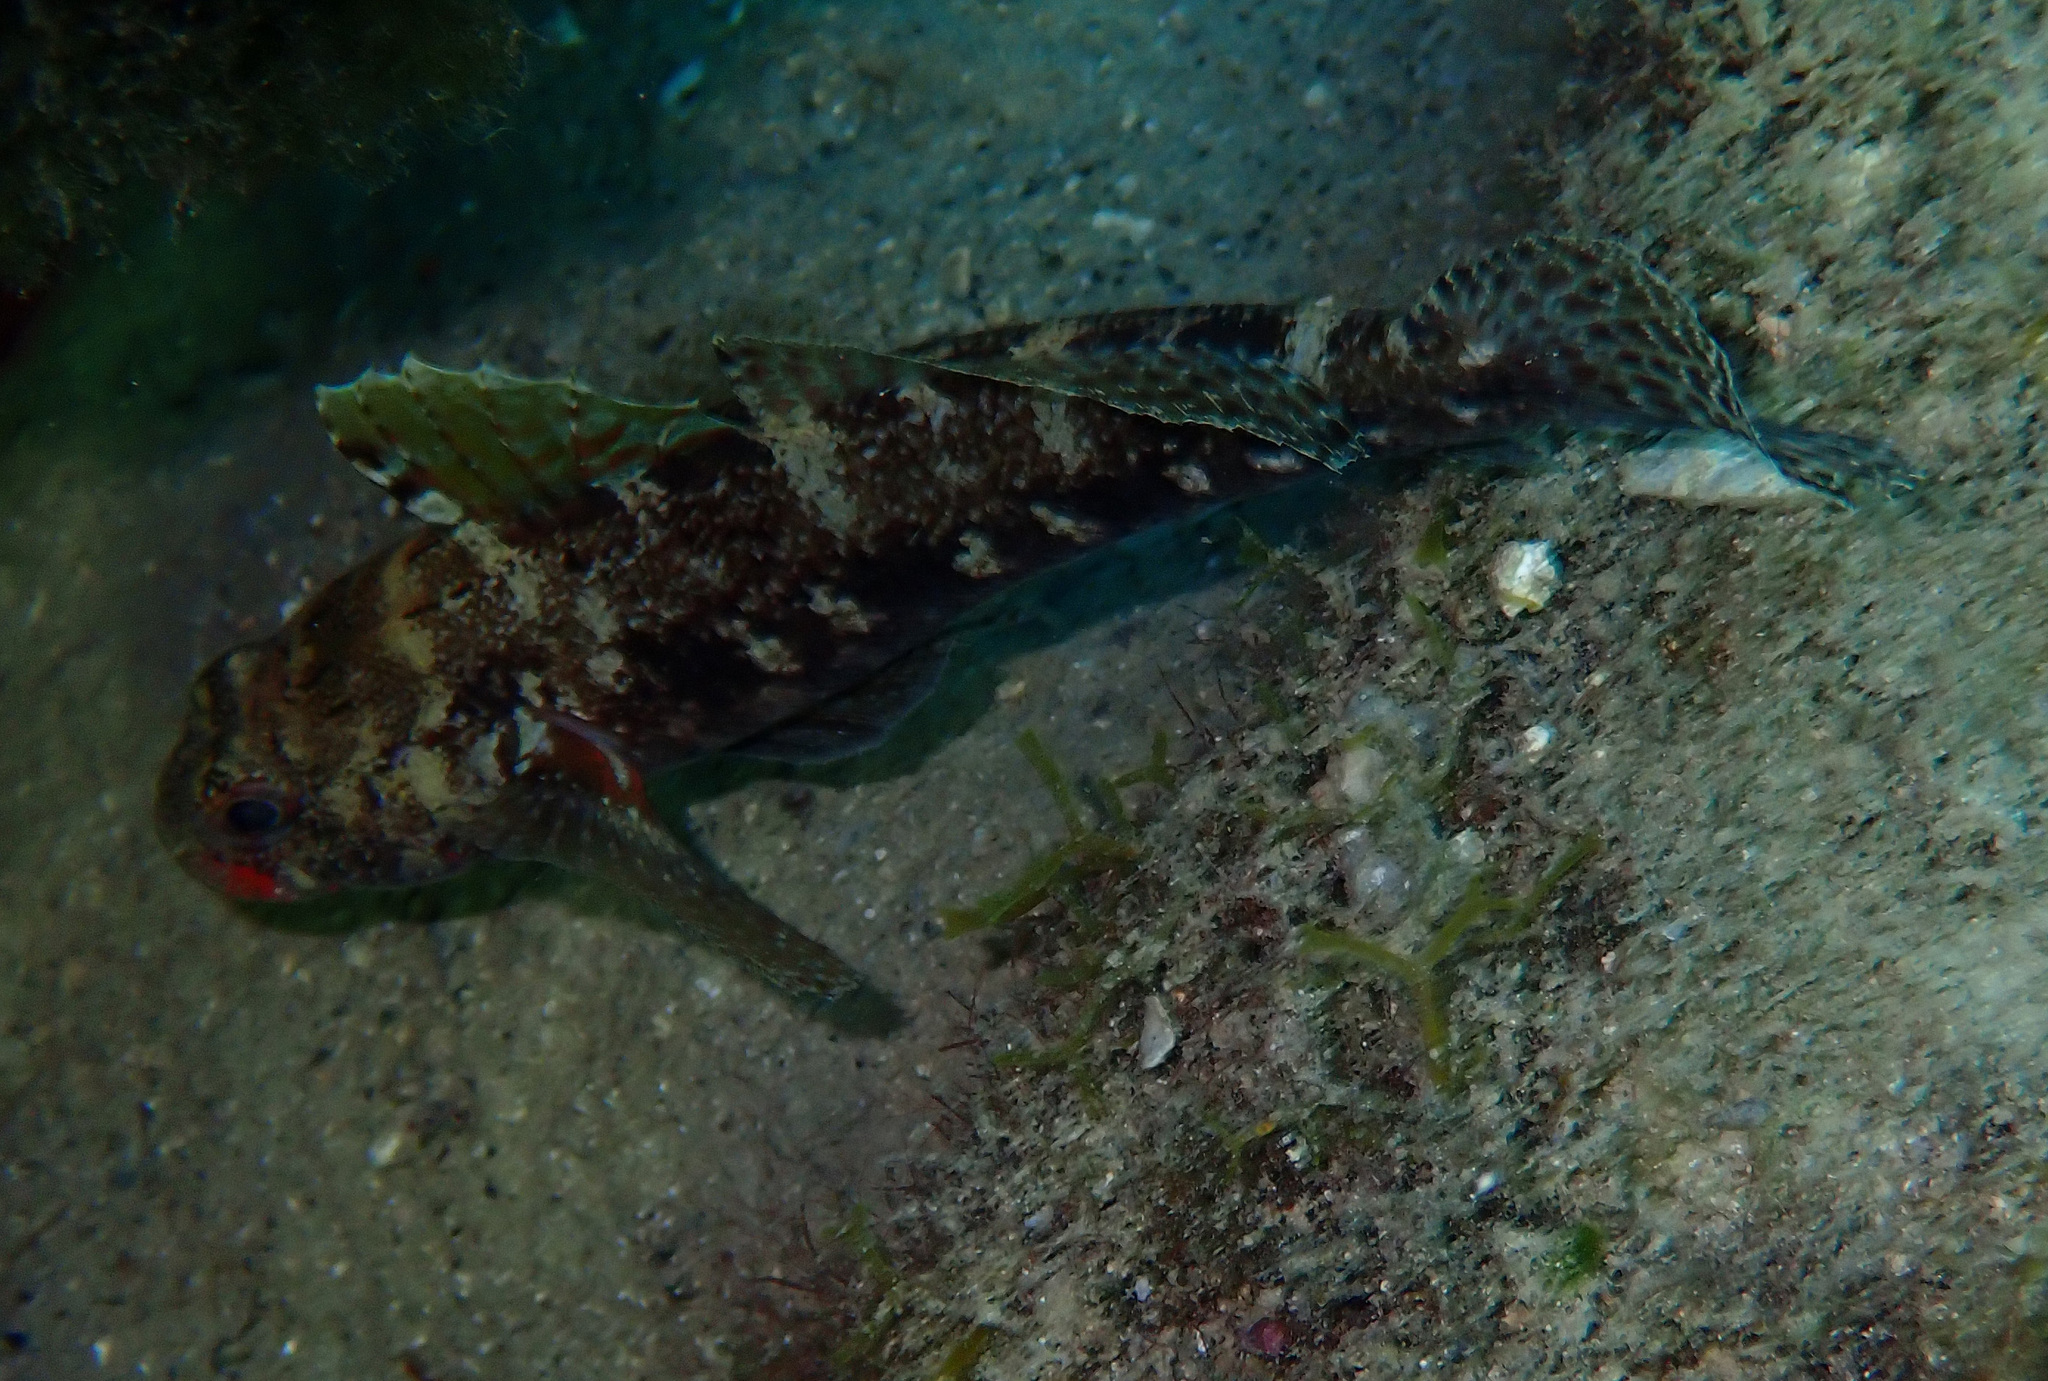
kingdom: Animalia
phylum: Chordata
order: Perciformes
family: Gobiidae
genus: Gobius
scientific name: Gobius cruentatus
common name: Red-mouthed goby
